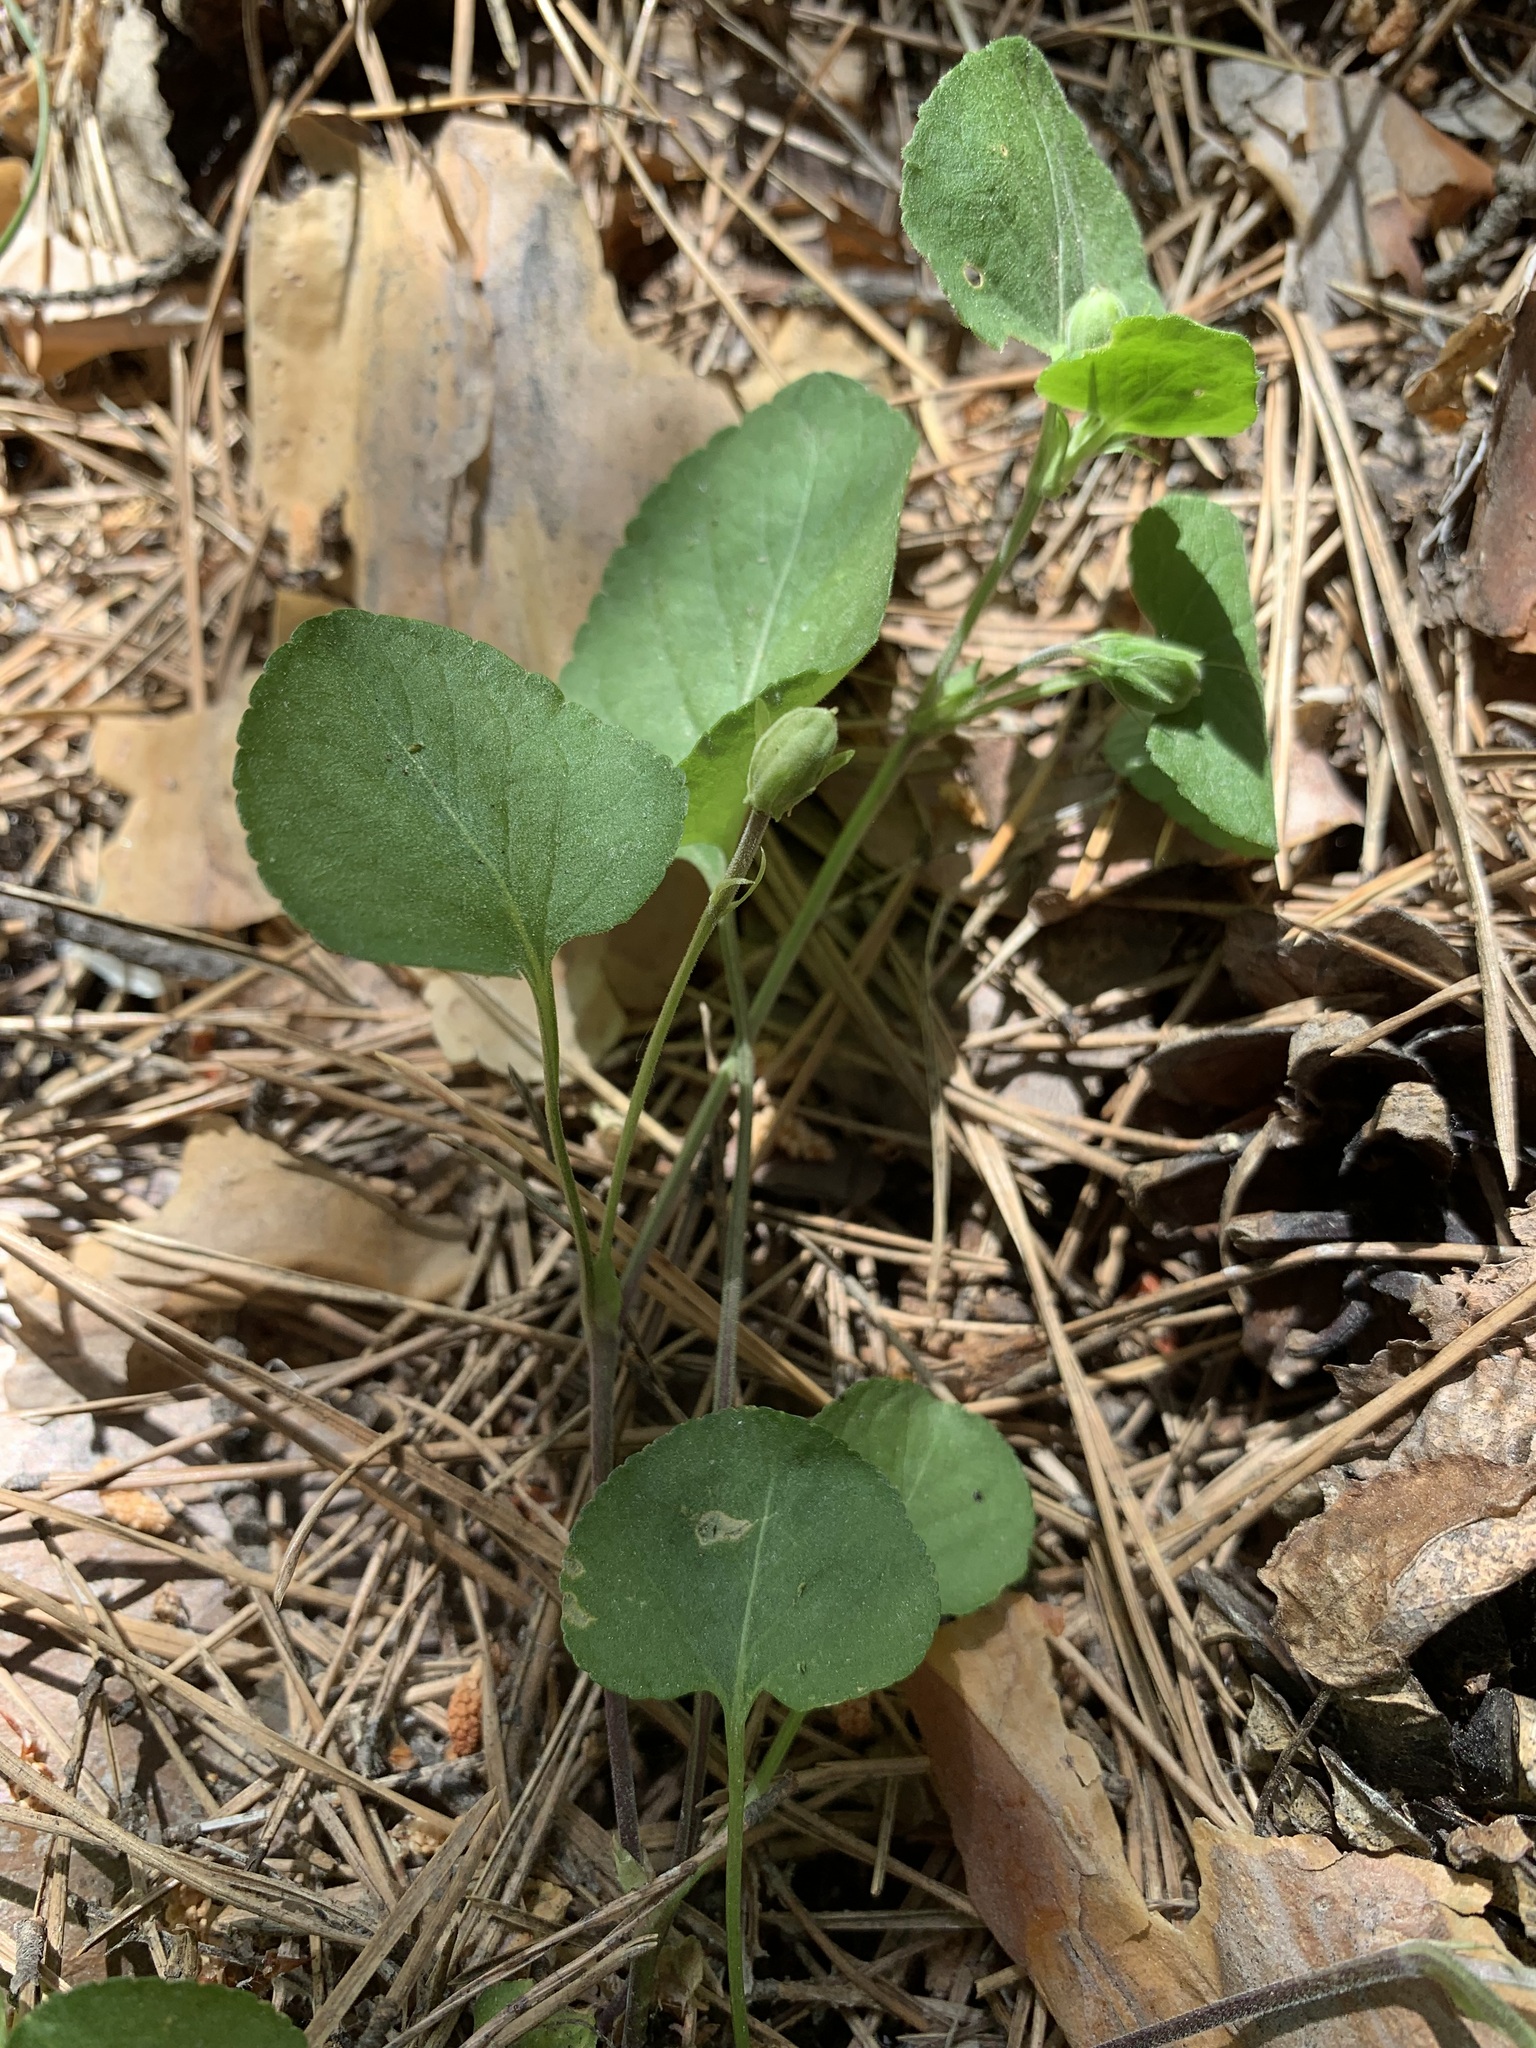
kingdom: Plantae
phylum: Tracheophyta
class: Magnoliopsida
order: Malpighiales
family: Violaceae
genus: Viola
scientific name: Viola rupestris
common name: Teesdale violet
